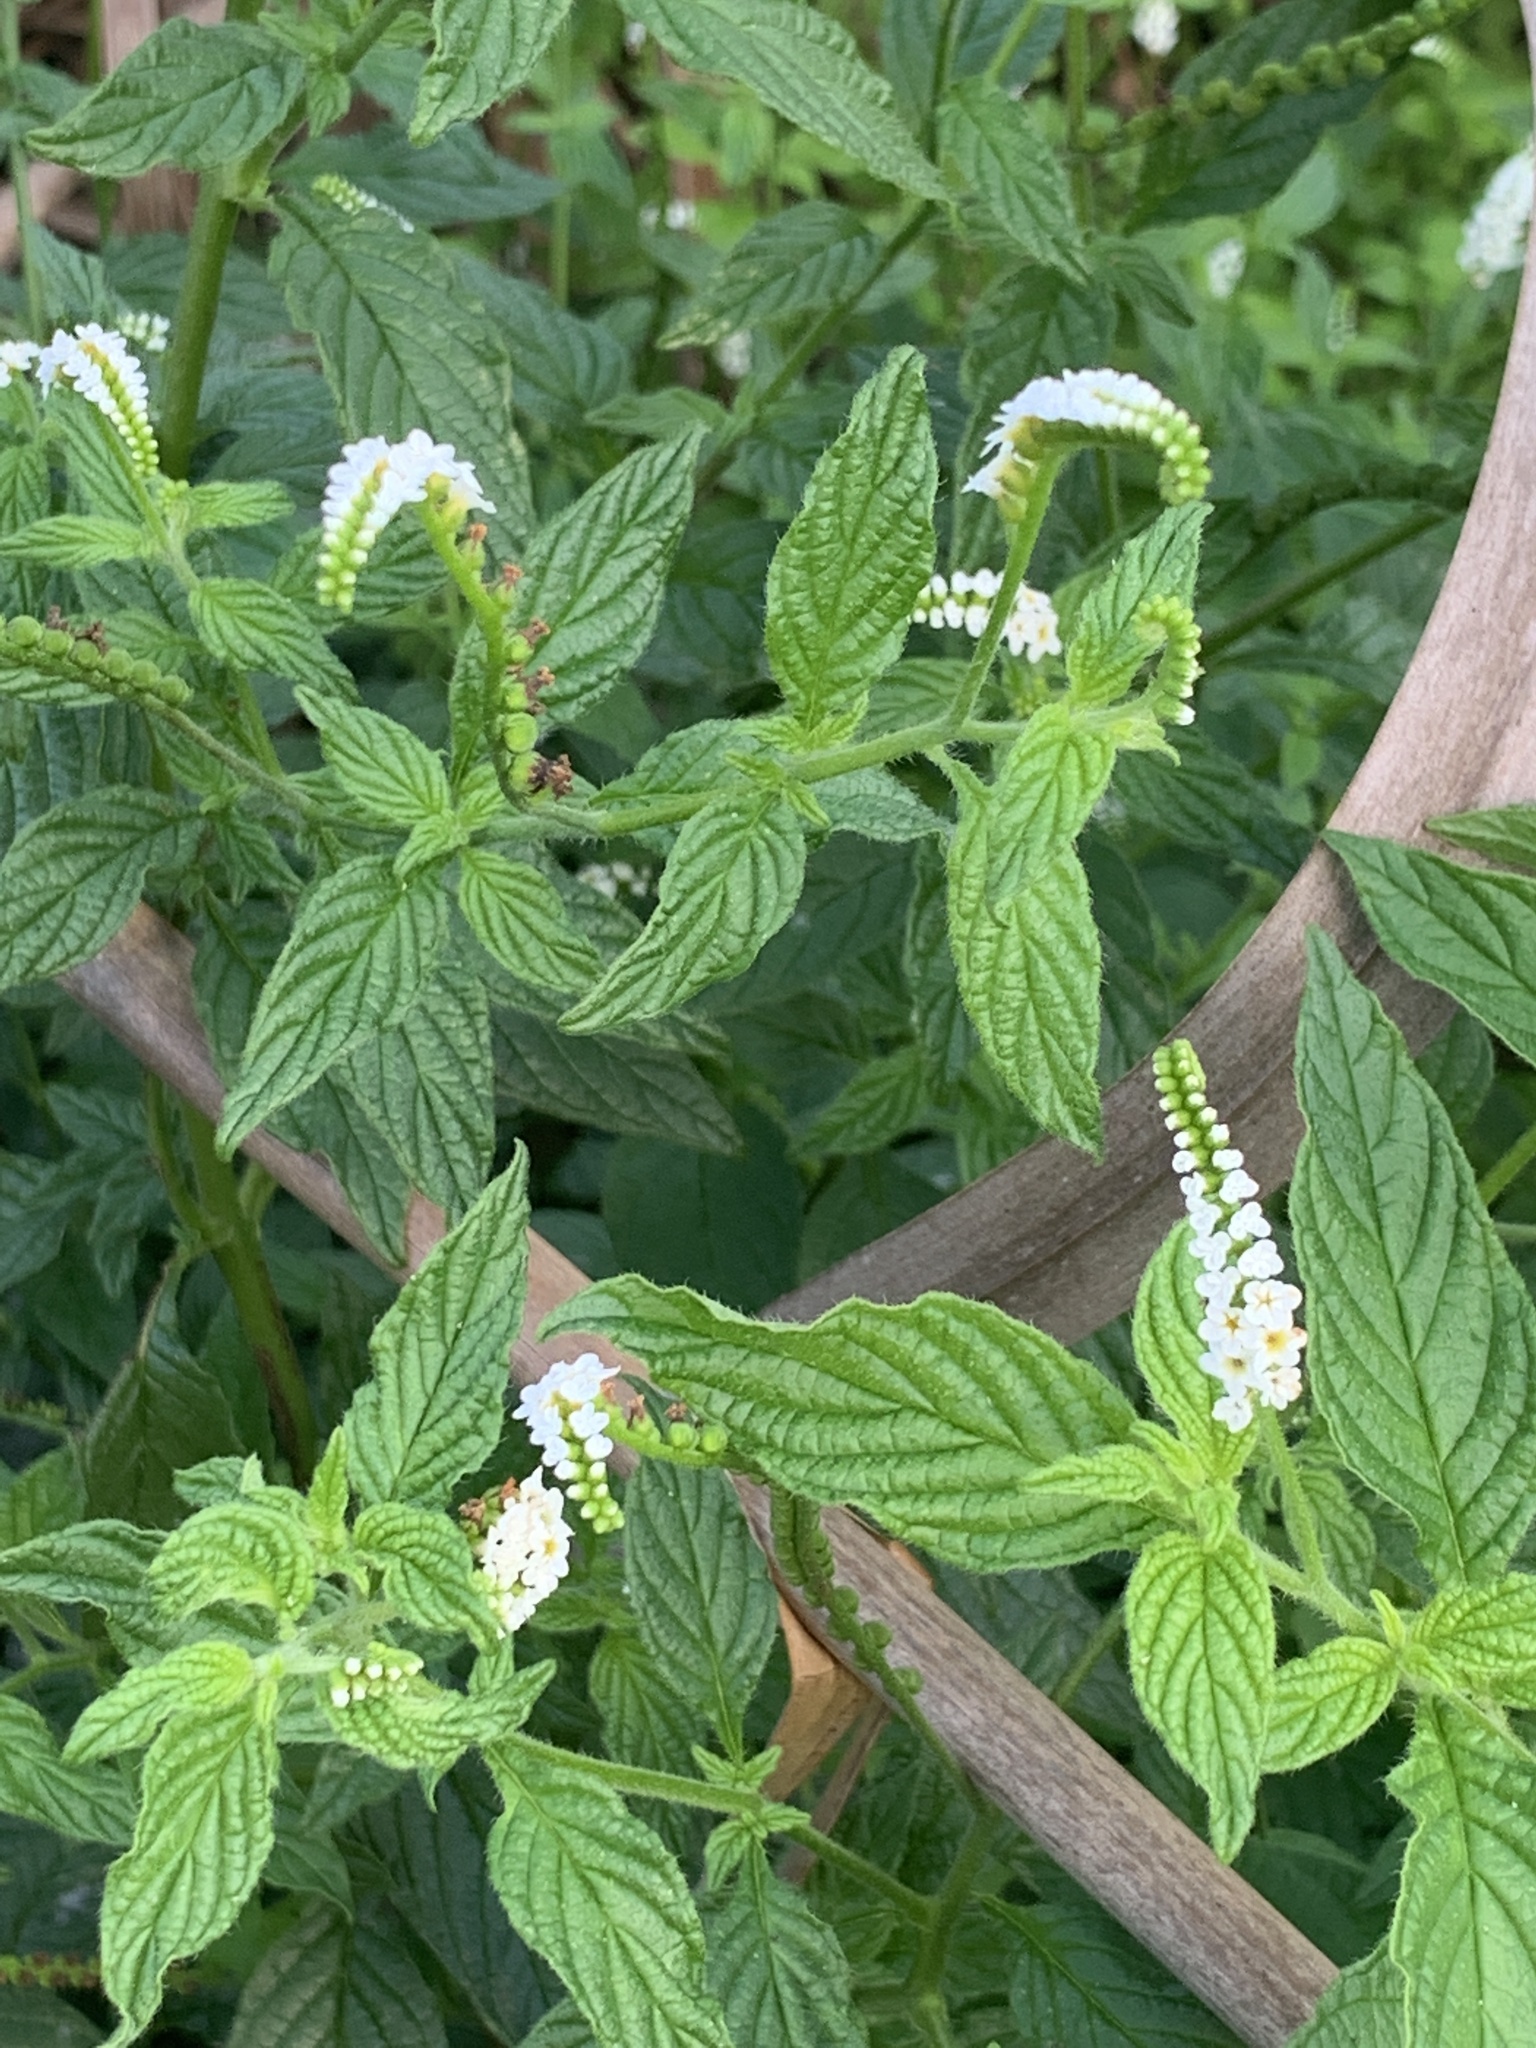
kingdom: Plantae
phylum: Tracheophyta
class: Magnoliopsida
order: Boraginales
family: Heliotropiaceae
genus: Heliotropium
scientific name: Heliotropium angiospermum
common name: Eye bright
